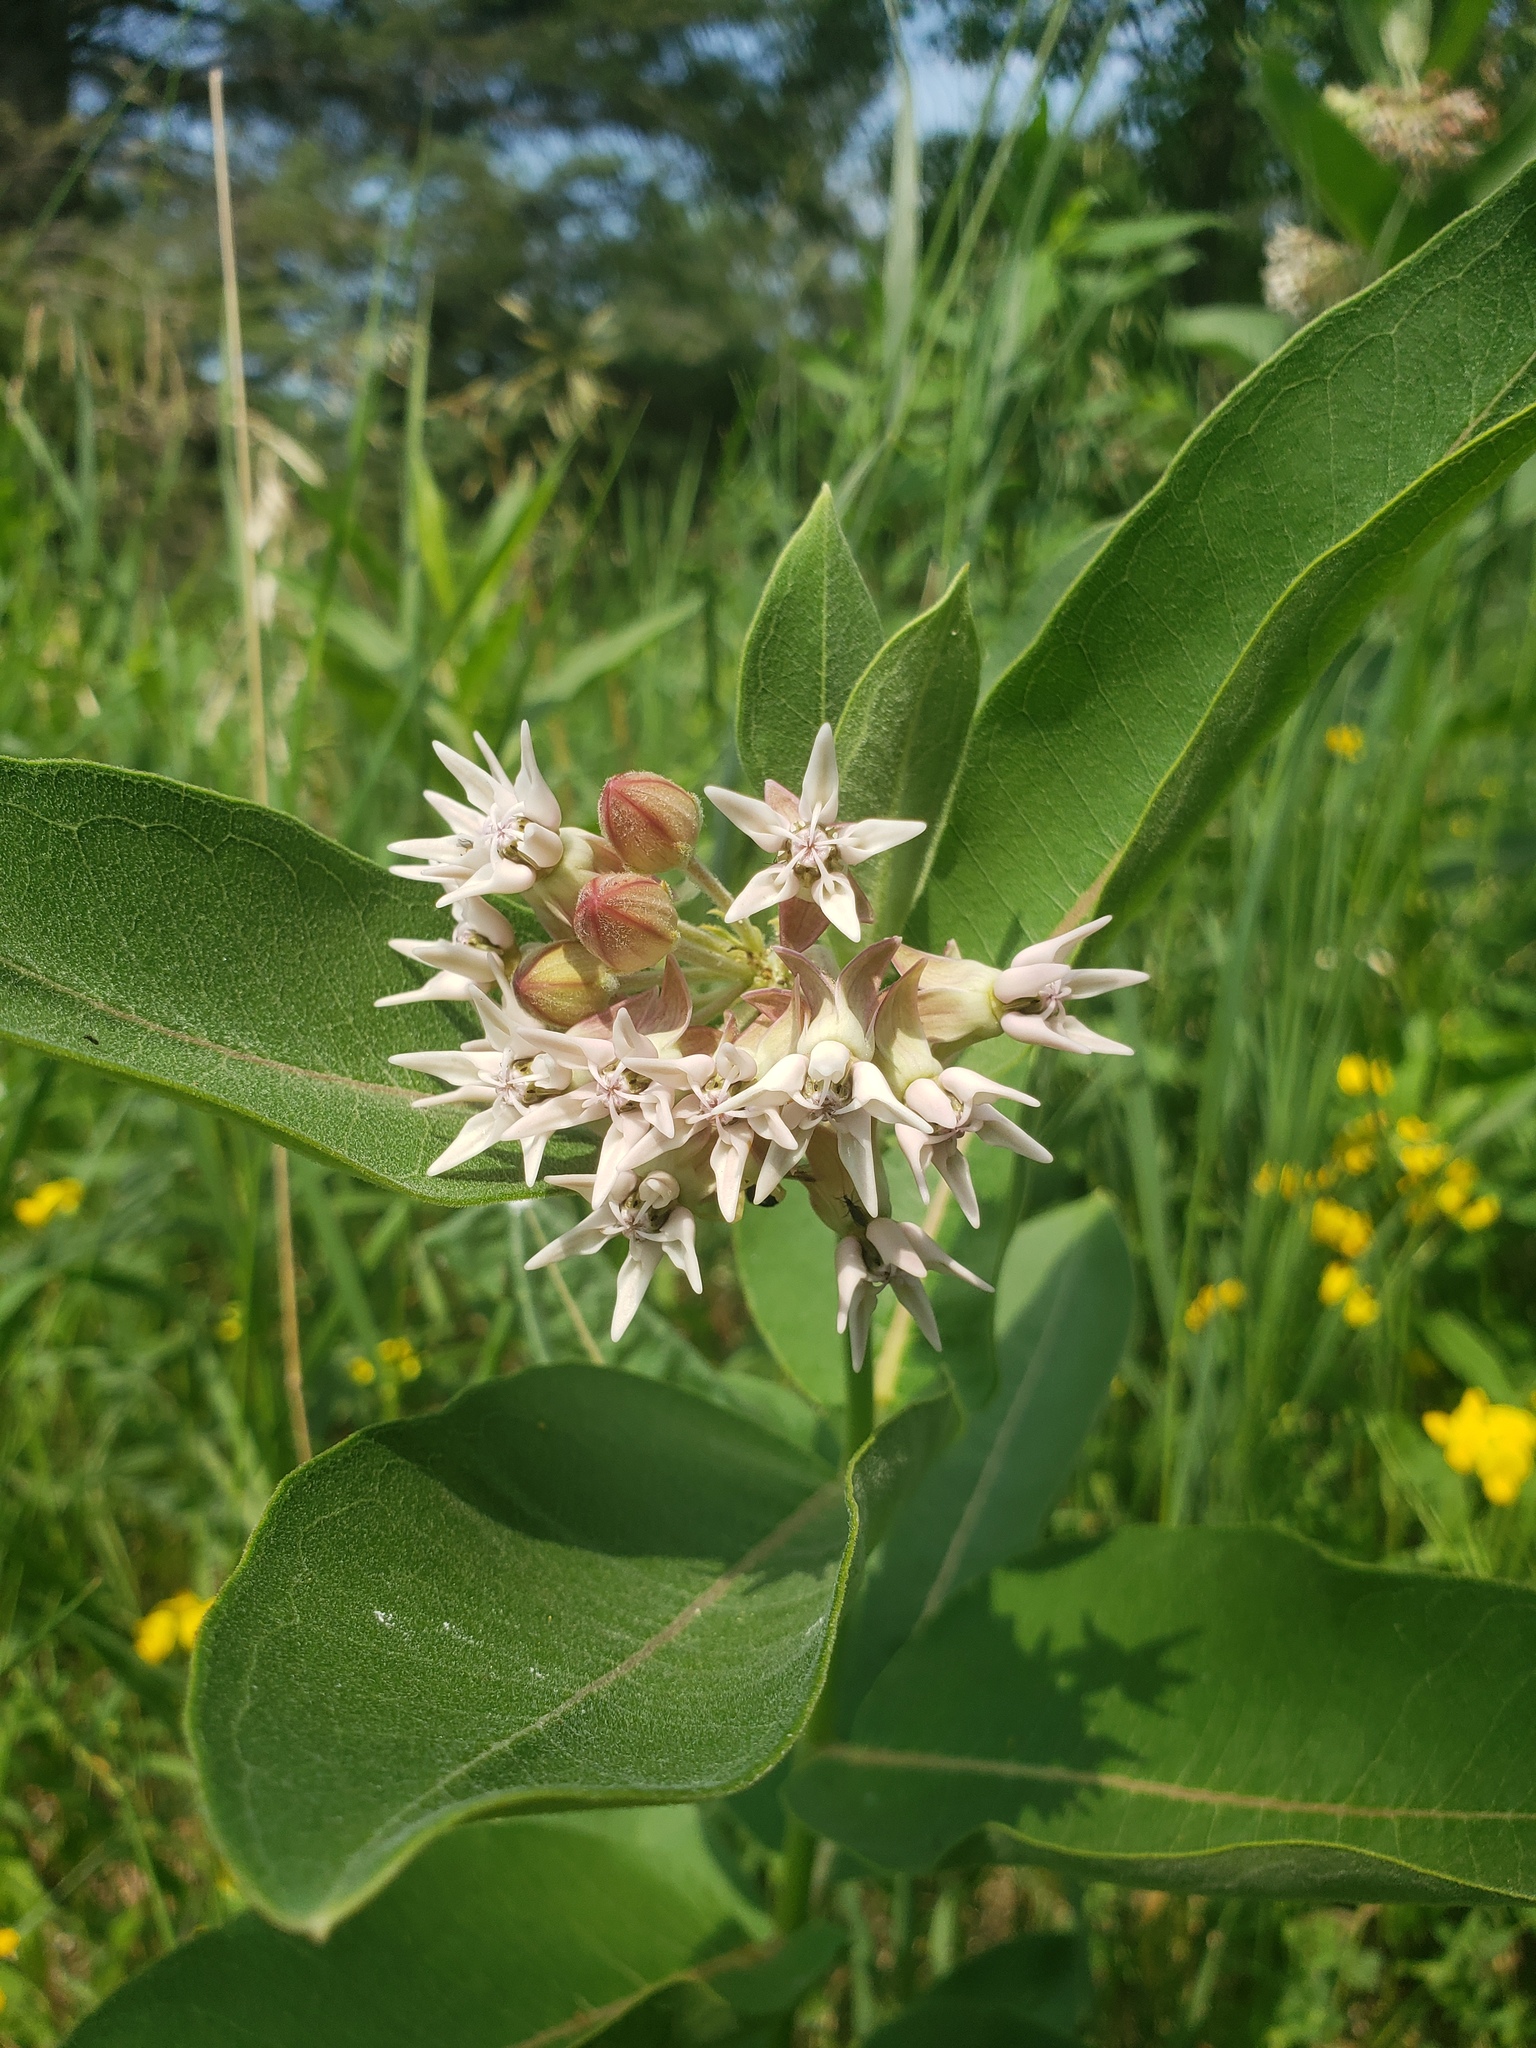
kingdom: Plantae
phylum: Tracheophyta
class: Magnoliopsida
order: Gentianales
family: Apocynaceae
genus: Asclepias
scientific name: Asclepias speciosa
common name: Showy milkweed
